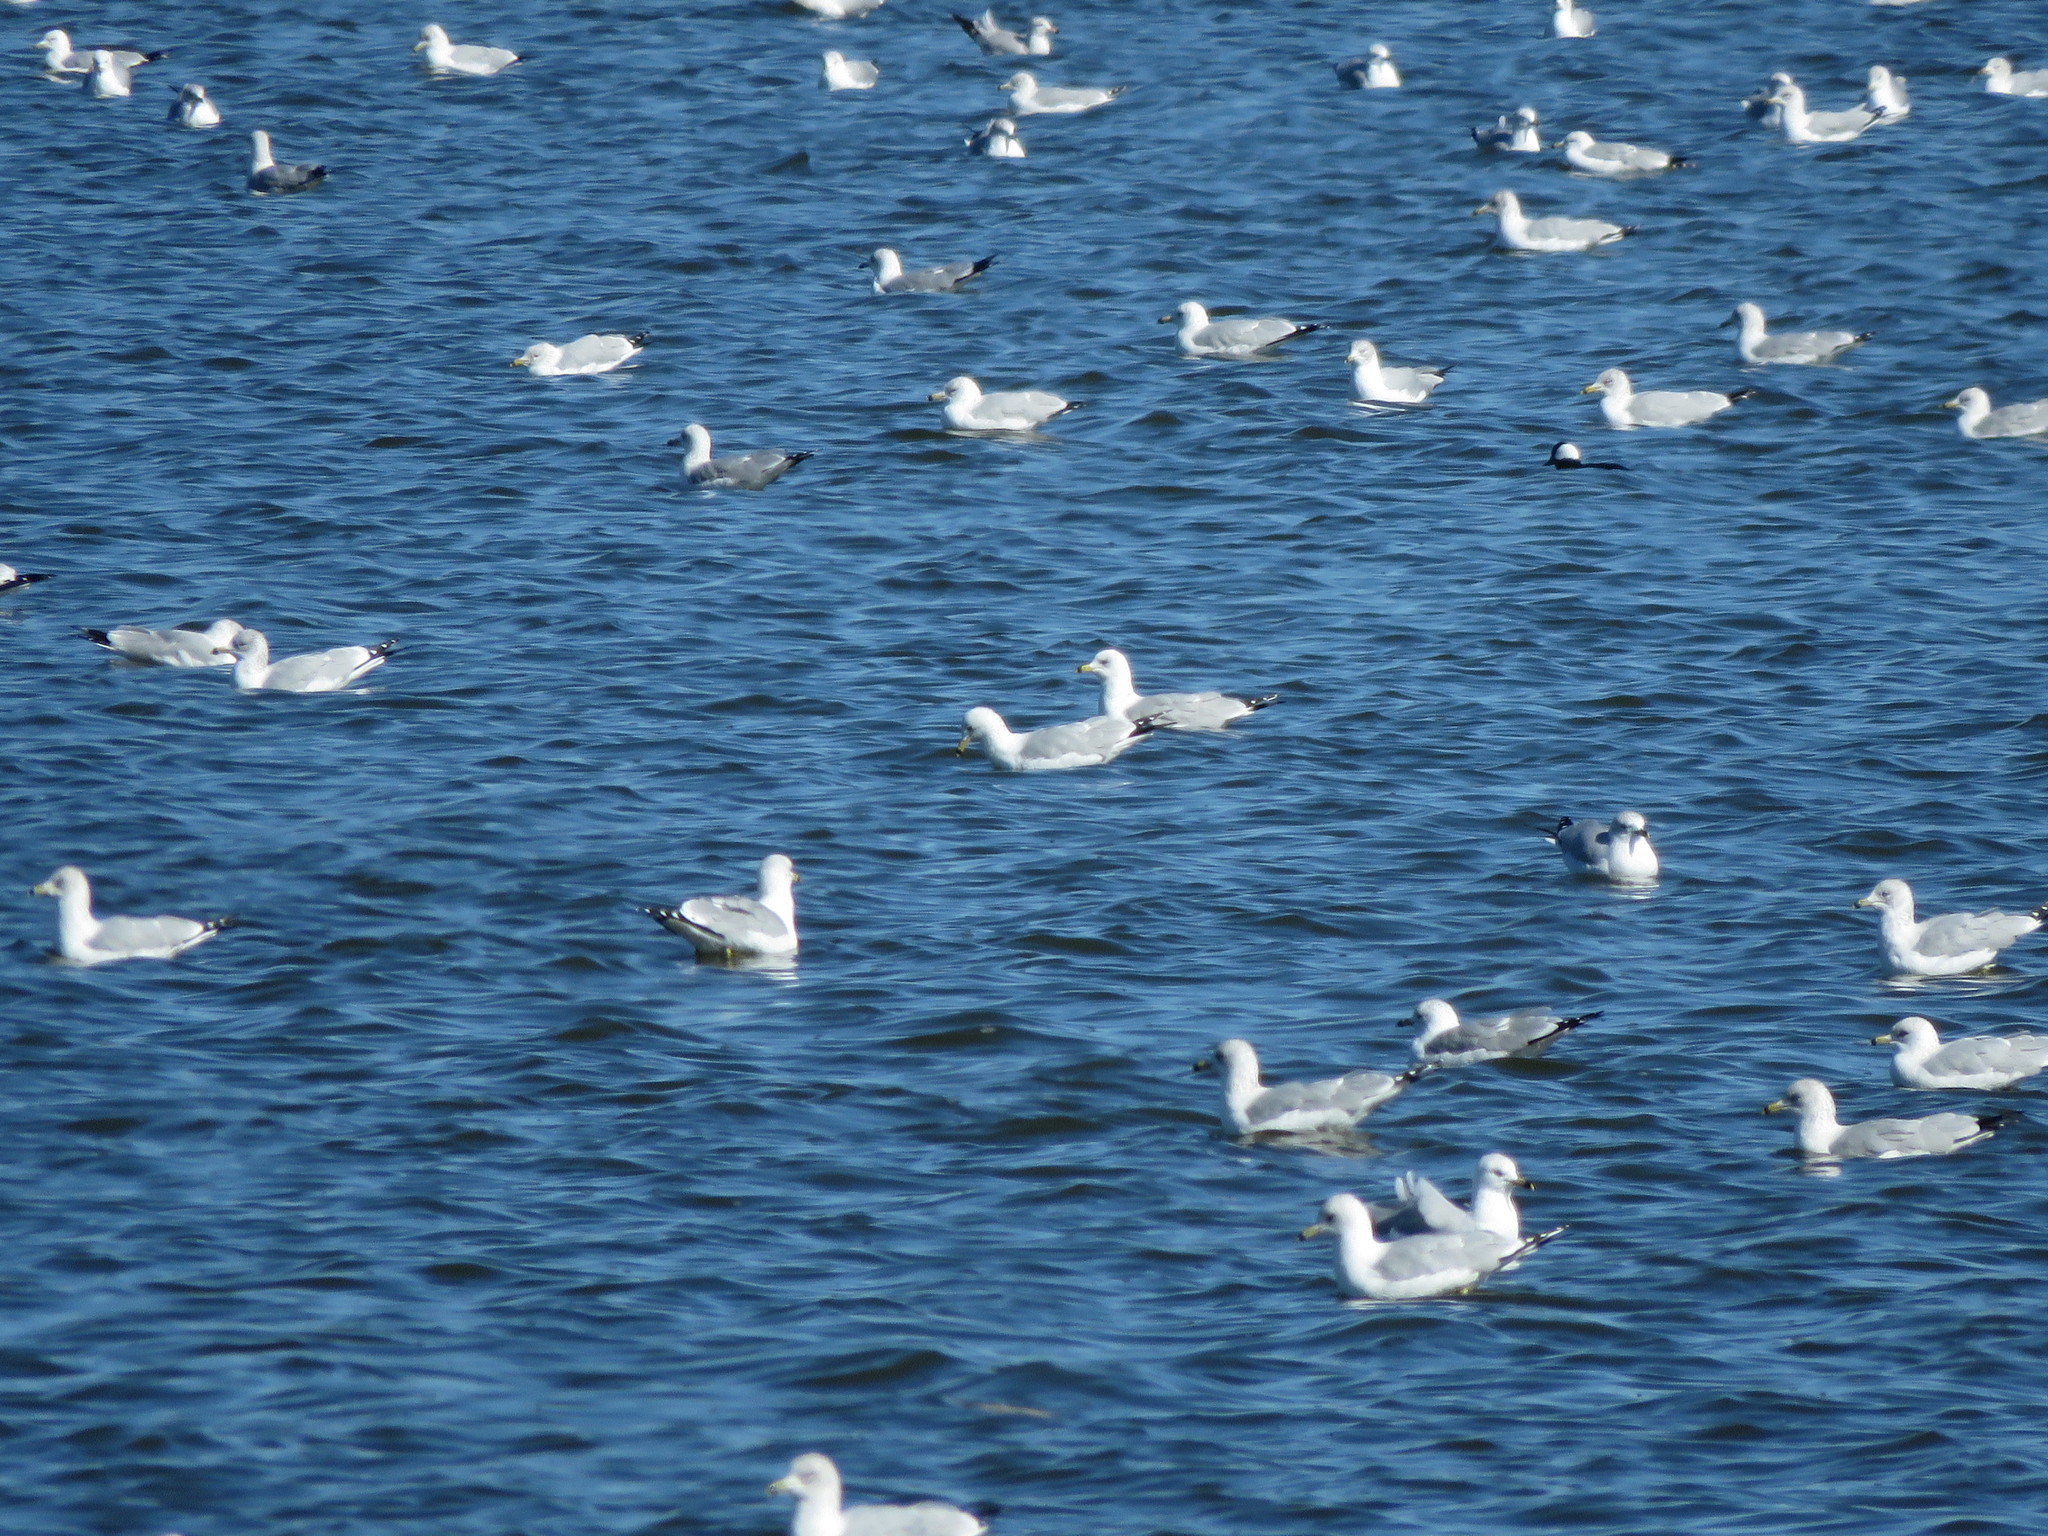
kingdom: Animalia
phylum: Chordata
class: Aves
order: Charadriiformes
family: Laridae
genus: Larus
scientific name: Larus delawarensis
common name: Ring-billed gull
